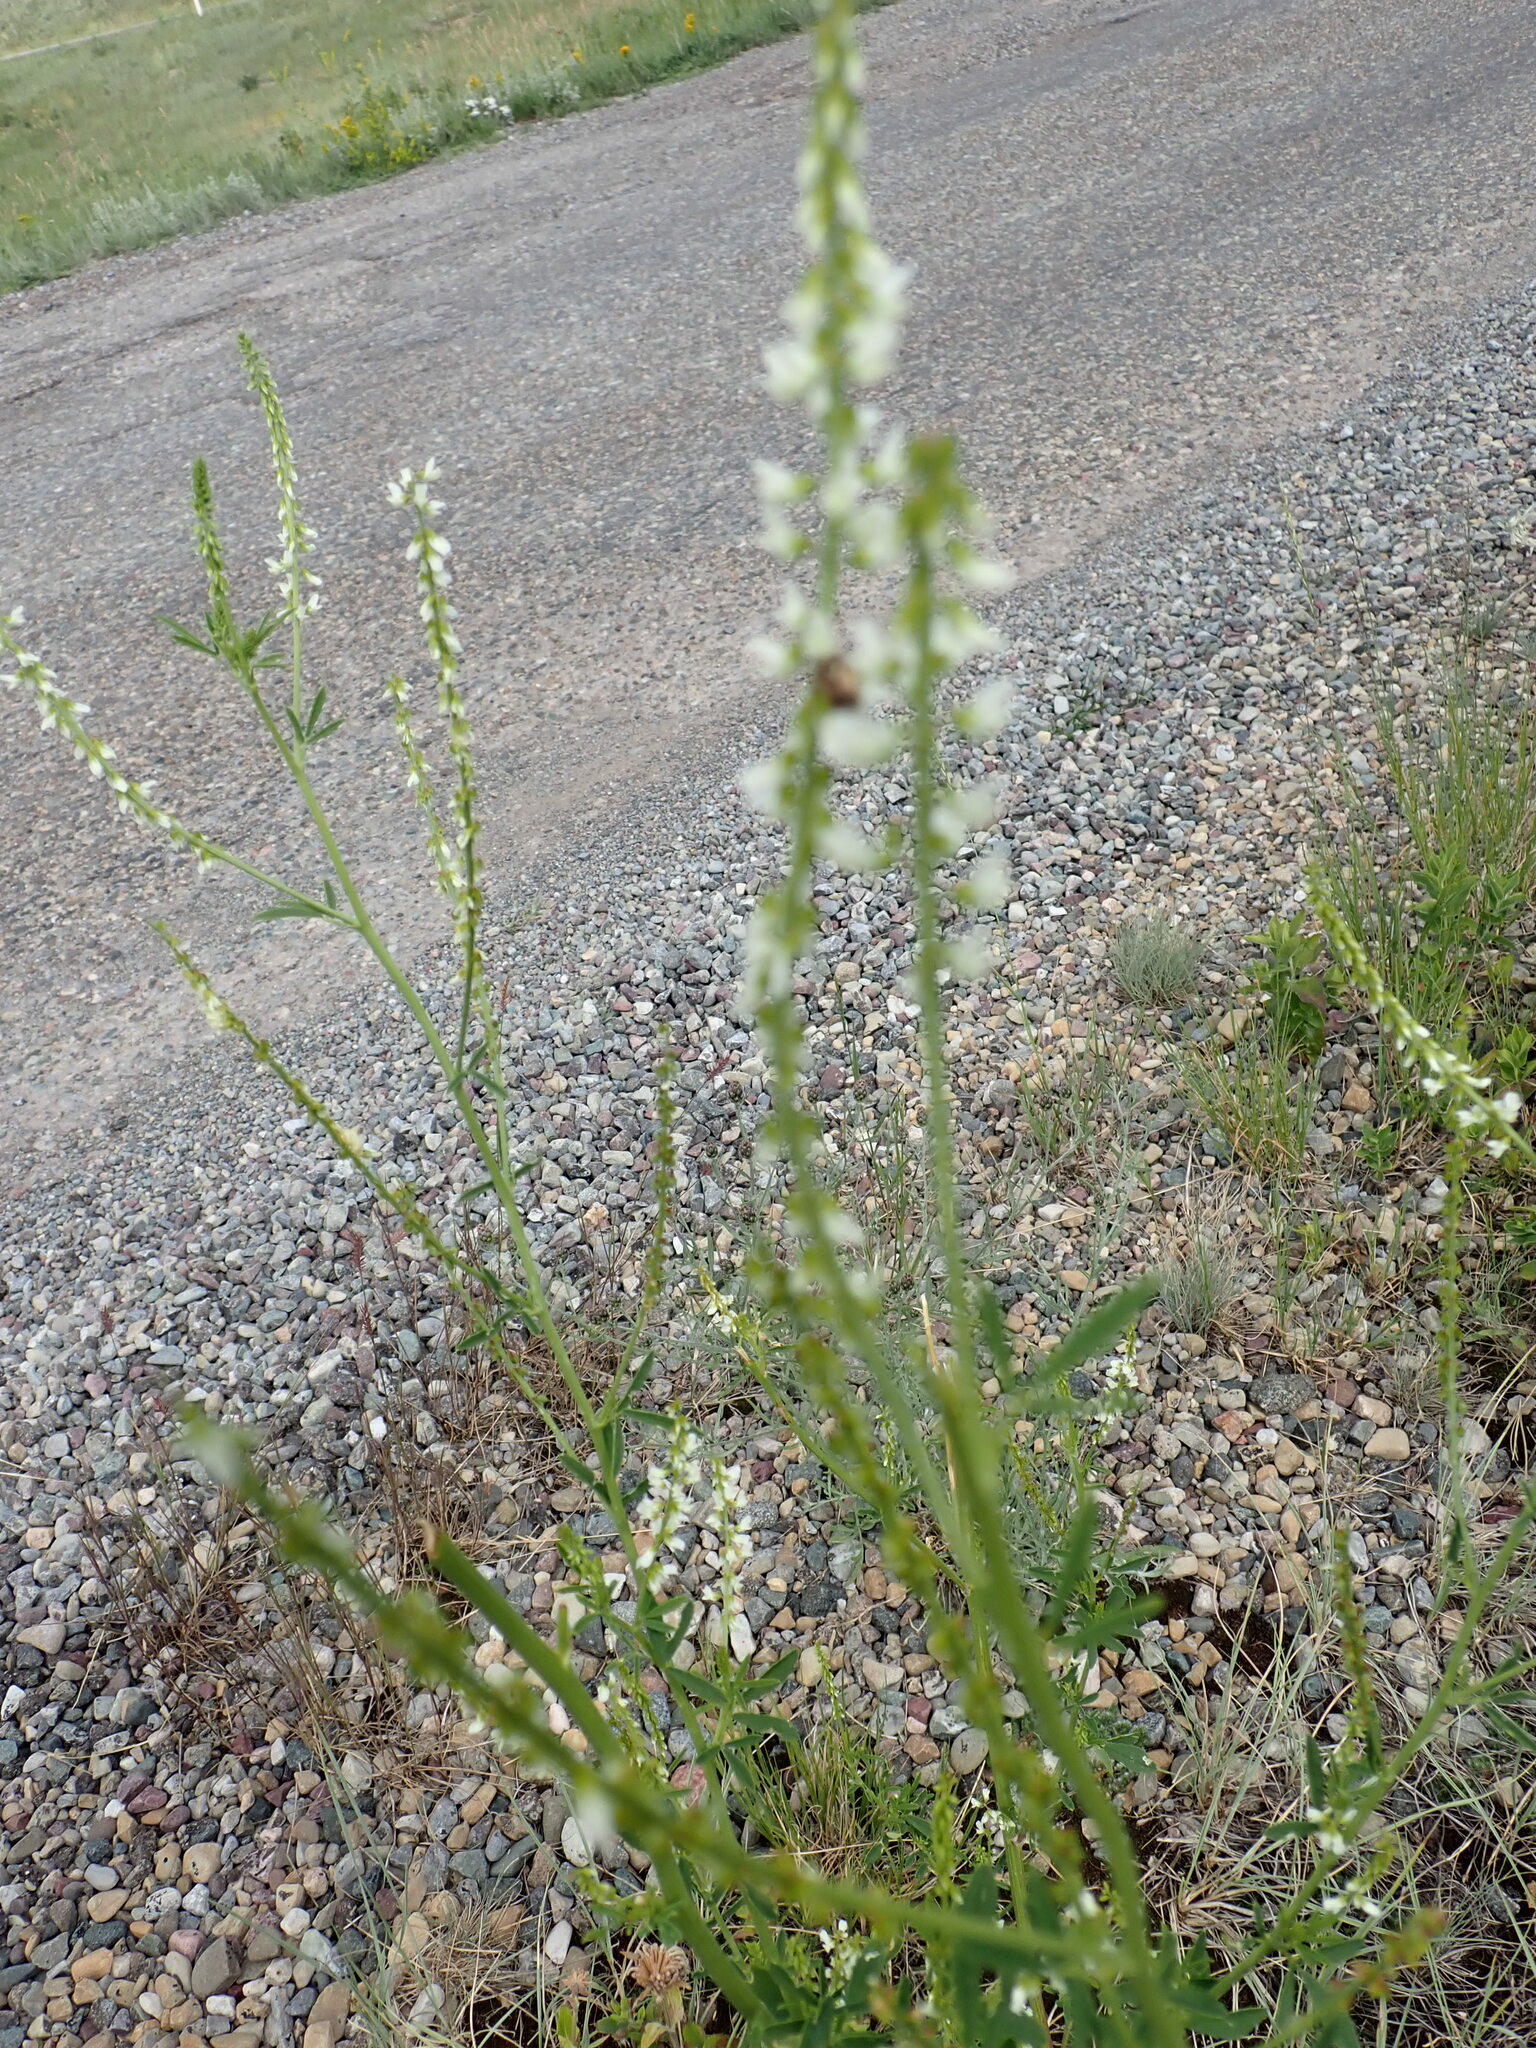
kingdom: Plantae
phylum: Tracheophyta
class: Magnoliopsida
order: Fabales
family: Fabaceae
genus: Melilotus
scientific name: Melilotus albus
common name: White melilot
